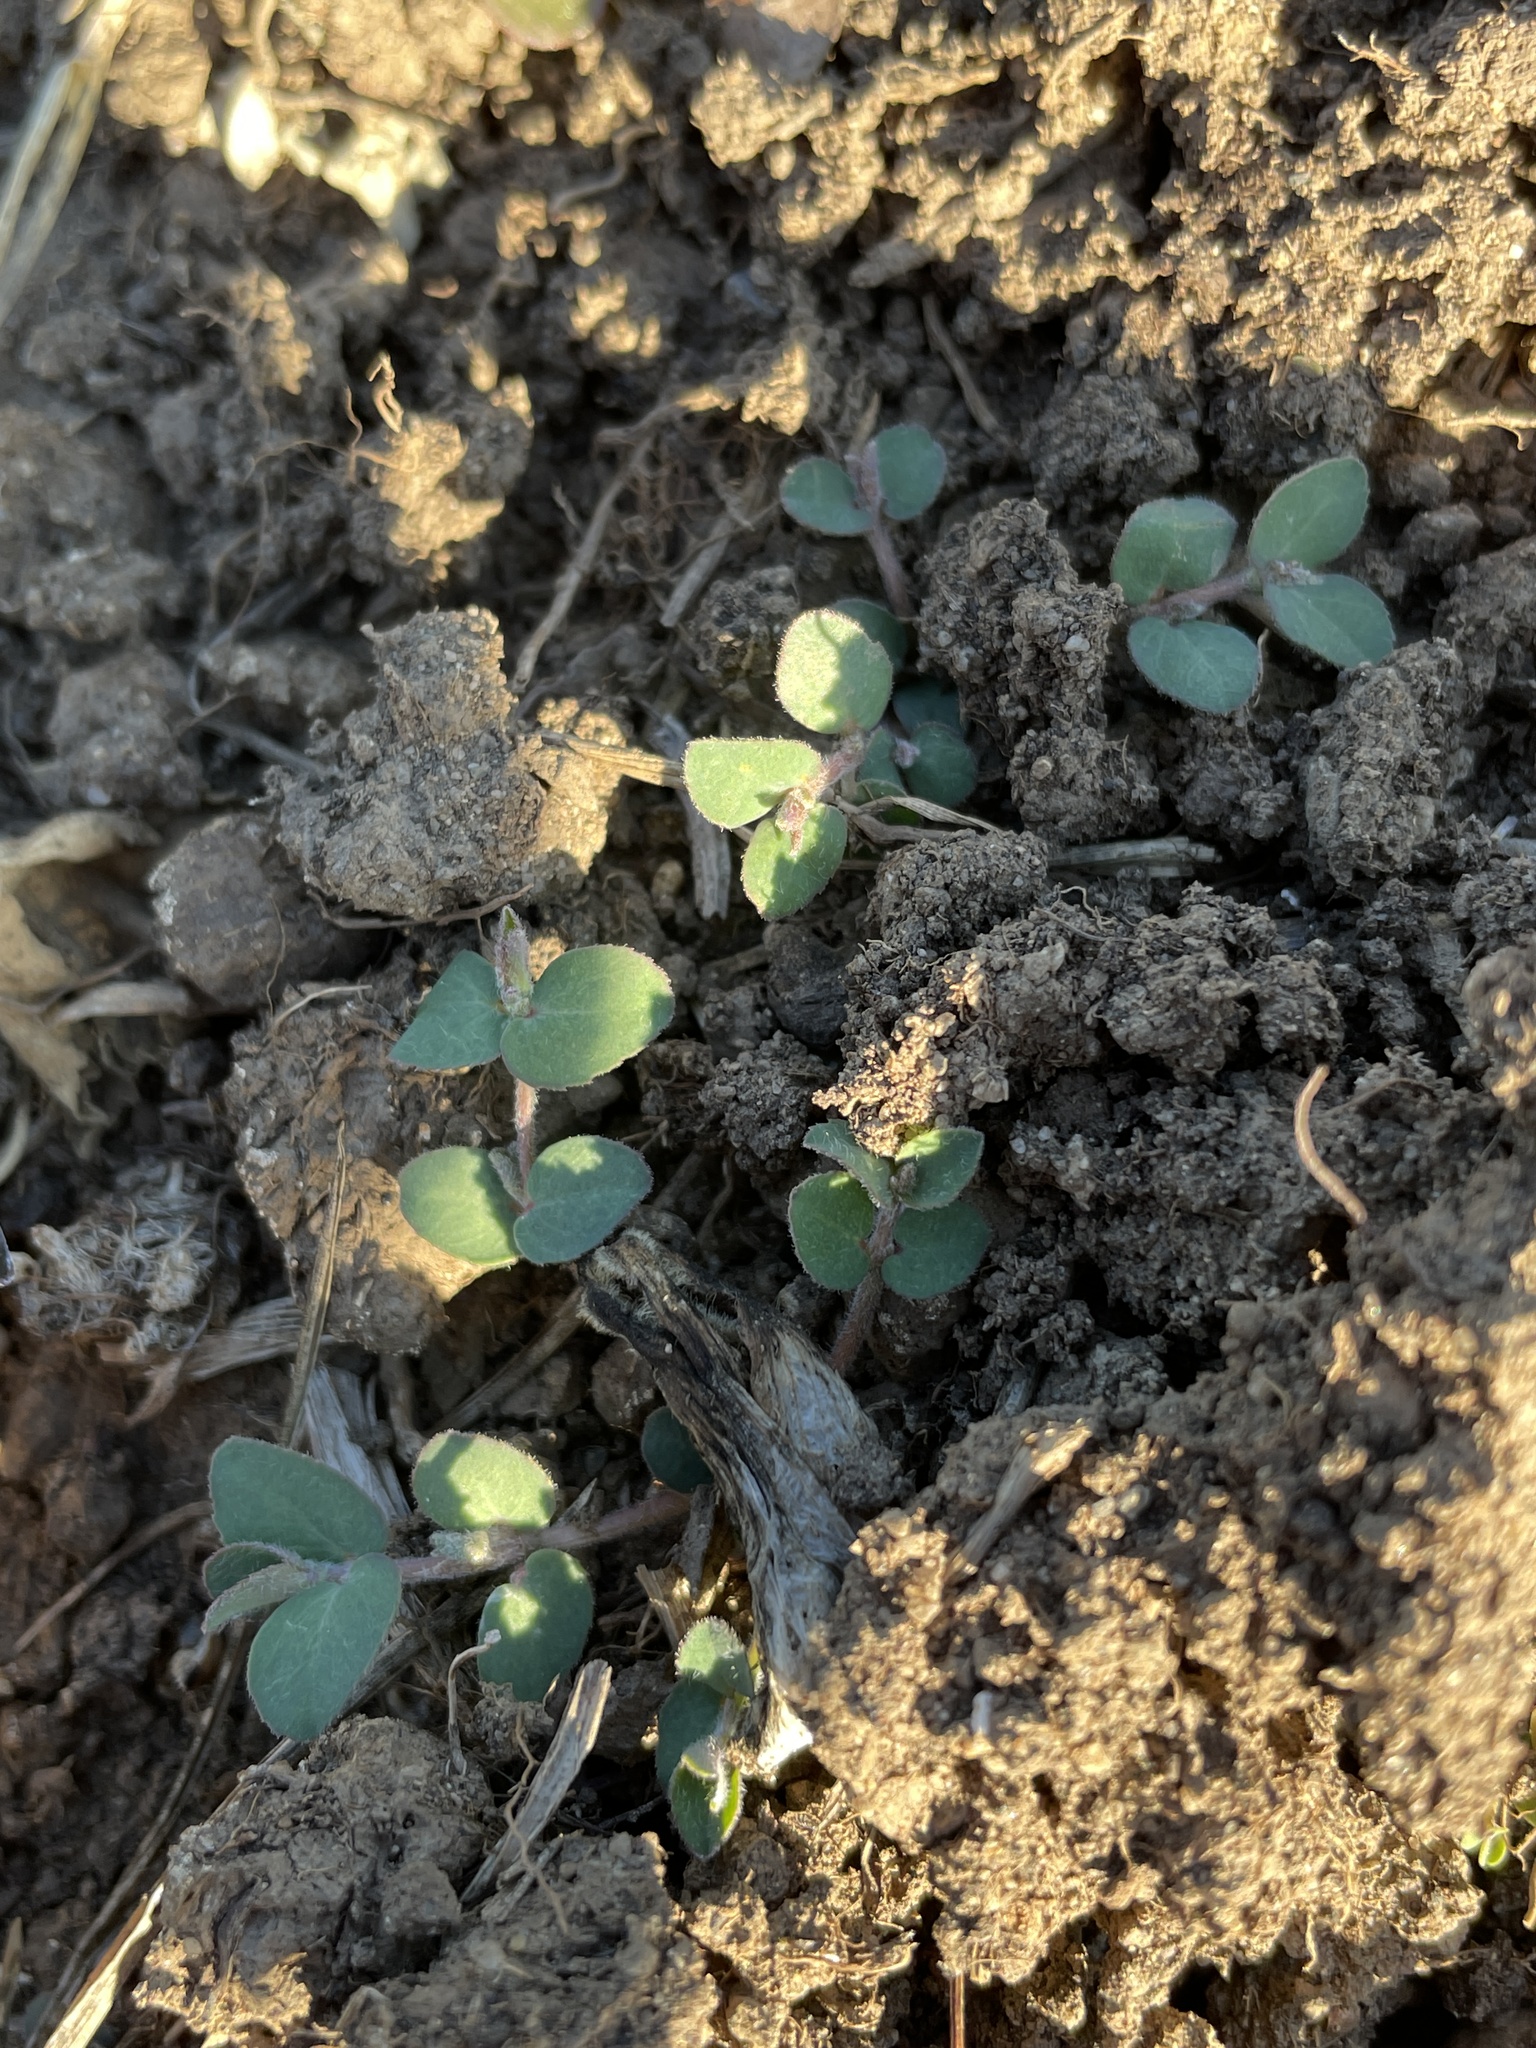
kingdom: Plantae
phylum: Tracheophyta
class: Magnoliopsida
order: Malpighiales
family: Euphorbiaceae
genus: Euphorbia
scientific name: Euphorbia prostrata
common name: Prostrate sandmat
